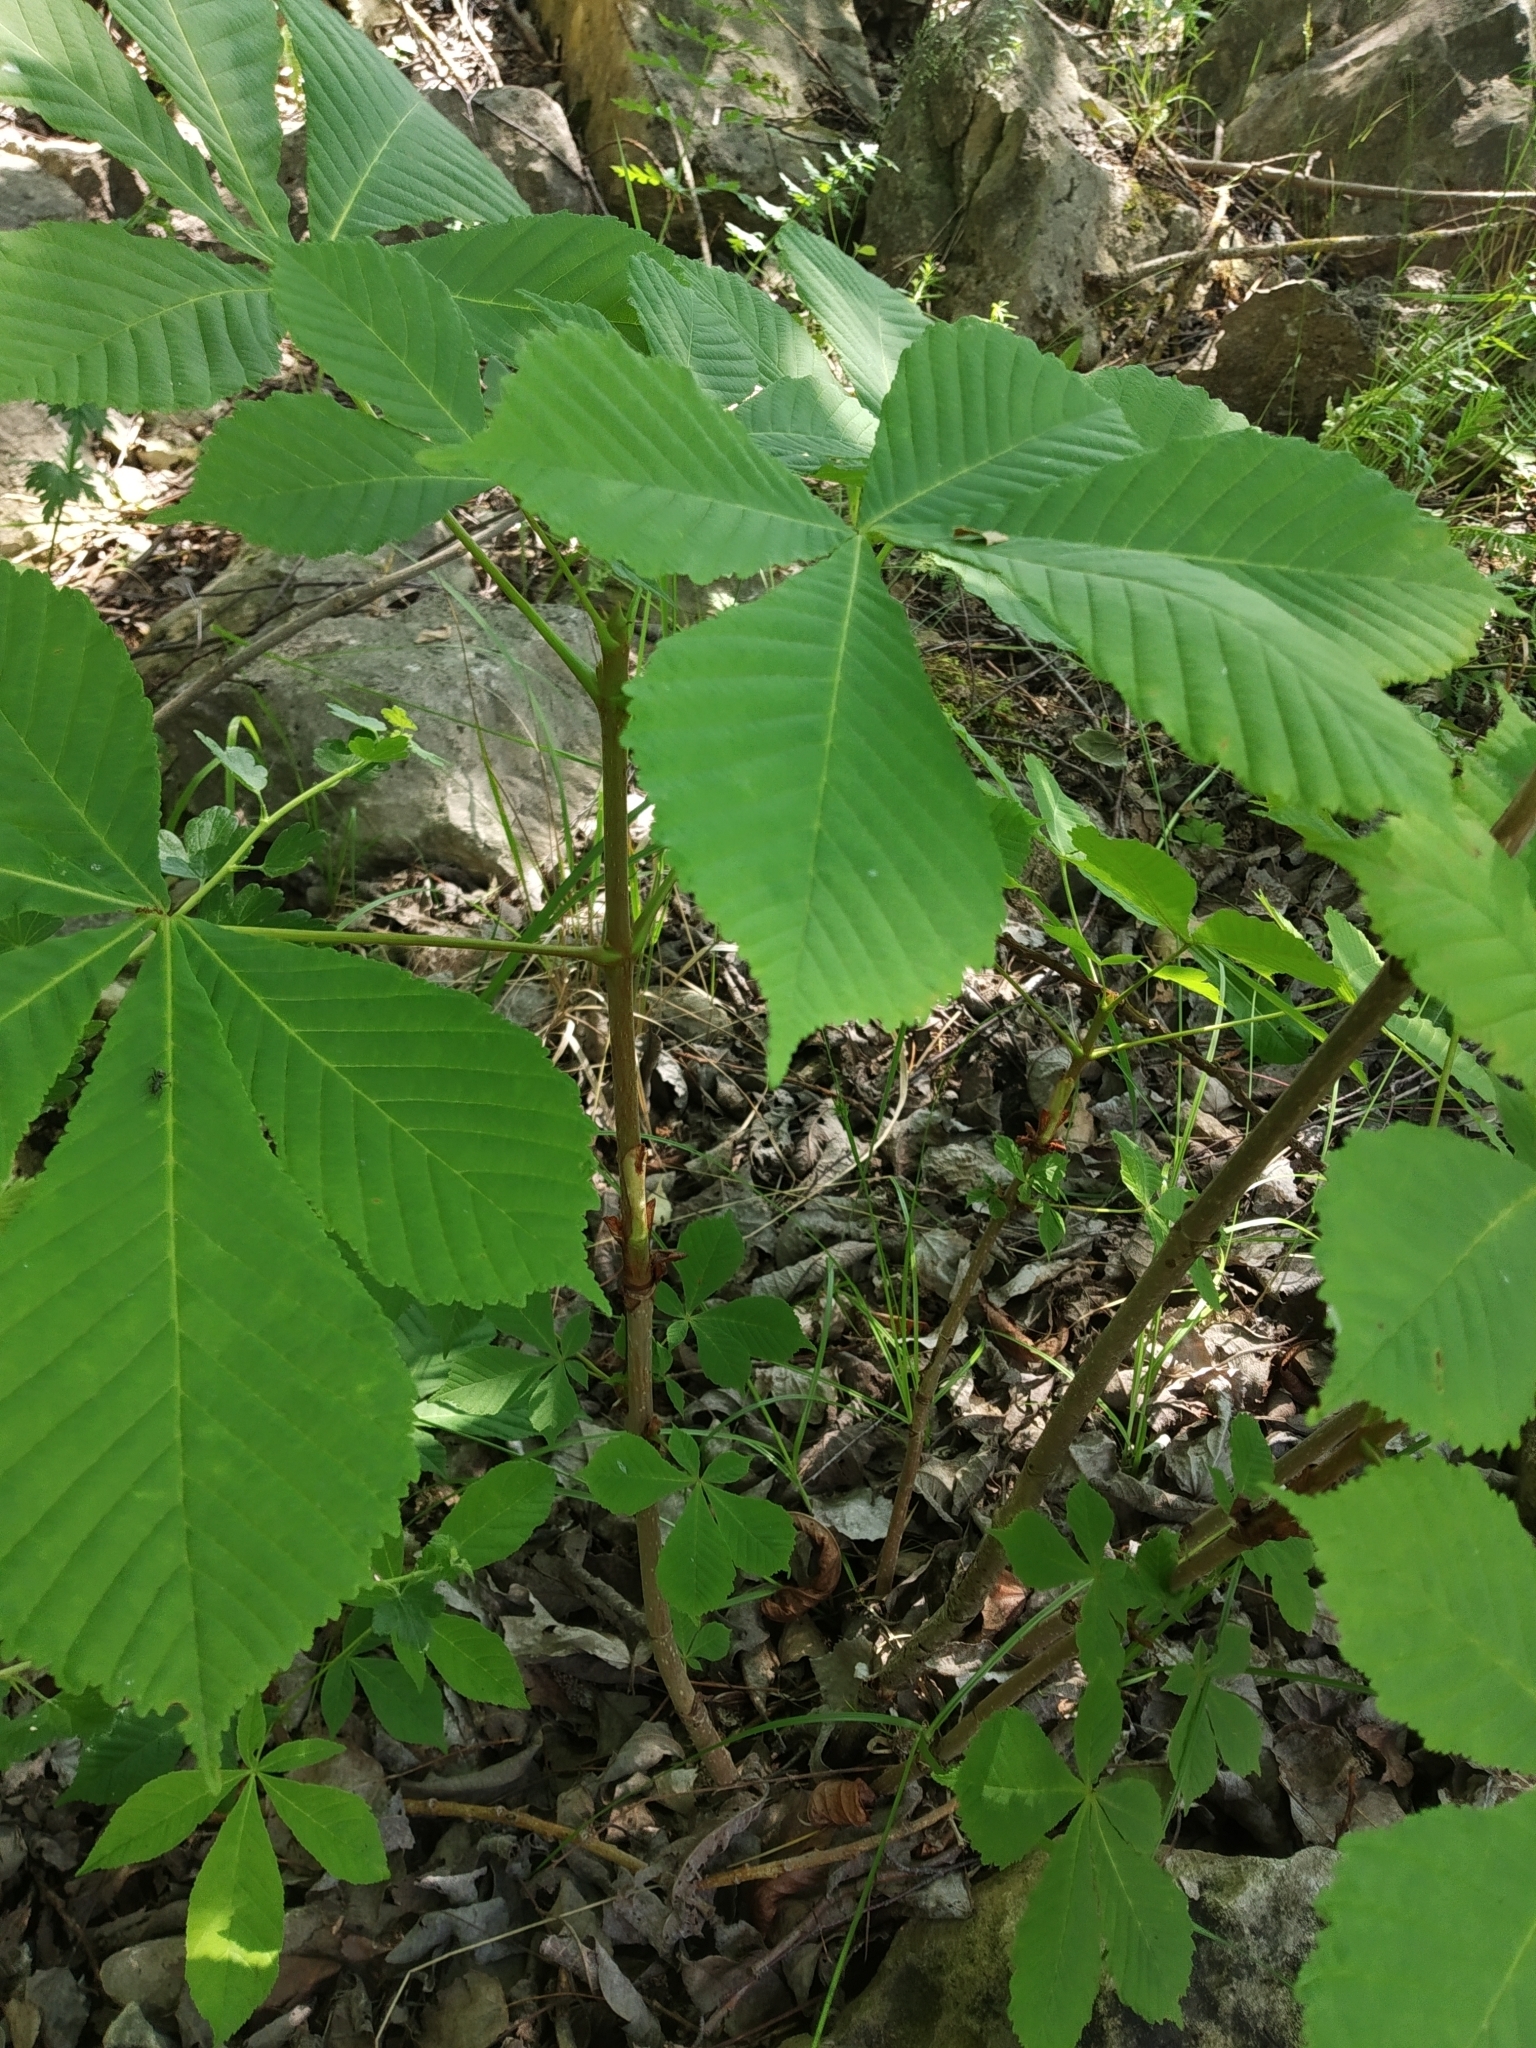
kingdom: Plantae
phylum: Tracheophyta
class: Magnoliopsida
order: Sapindales
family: Sapindaceae
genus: Aesculus
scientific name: Aesculus hippocastanum
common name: Horse-chestnut
